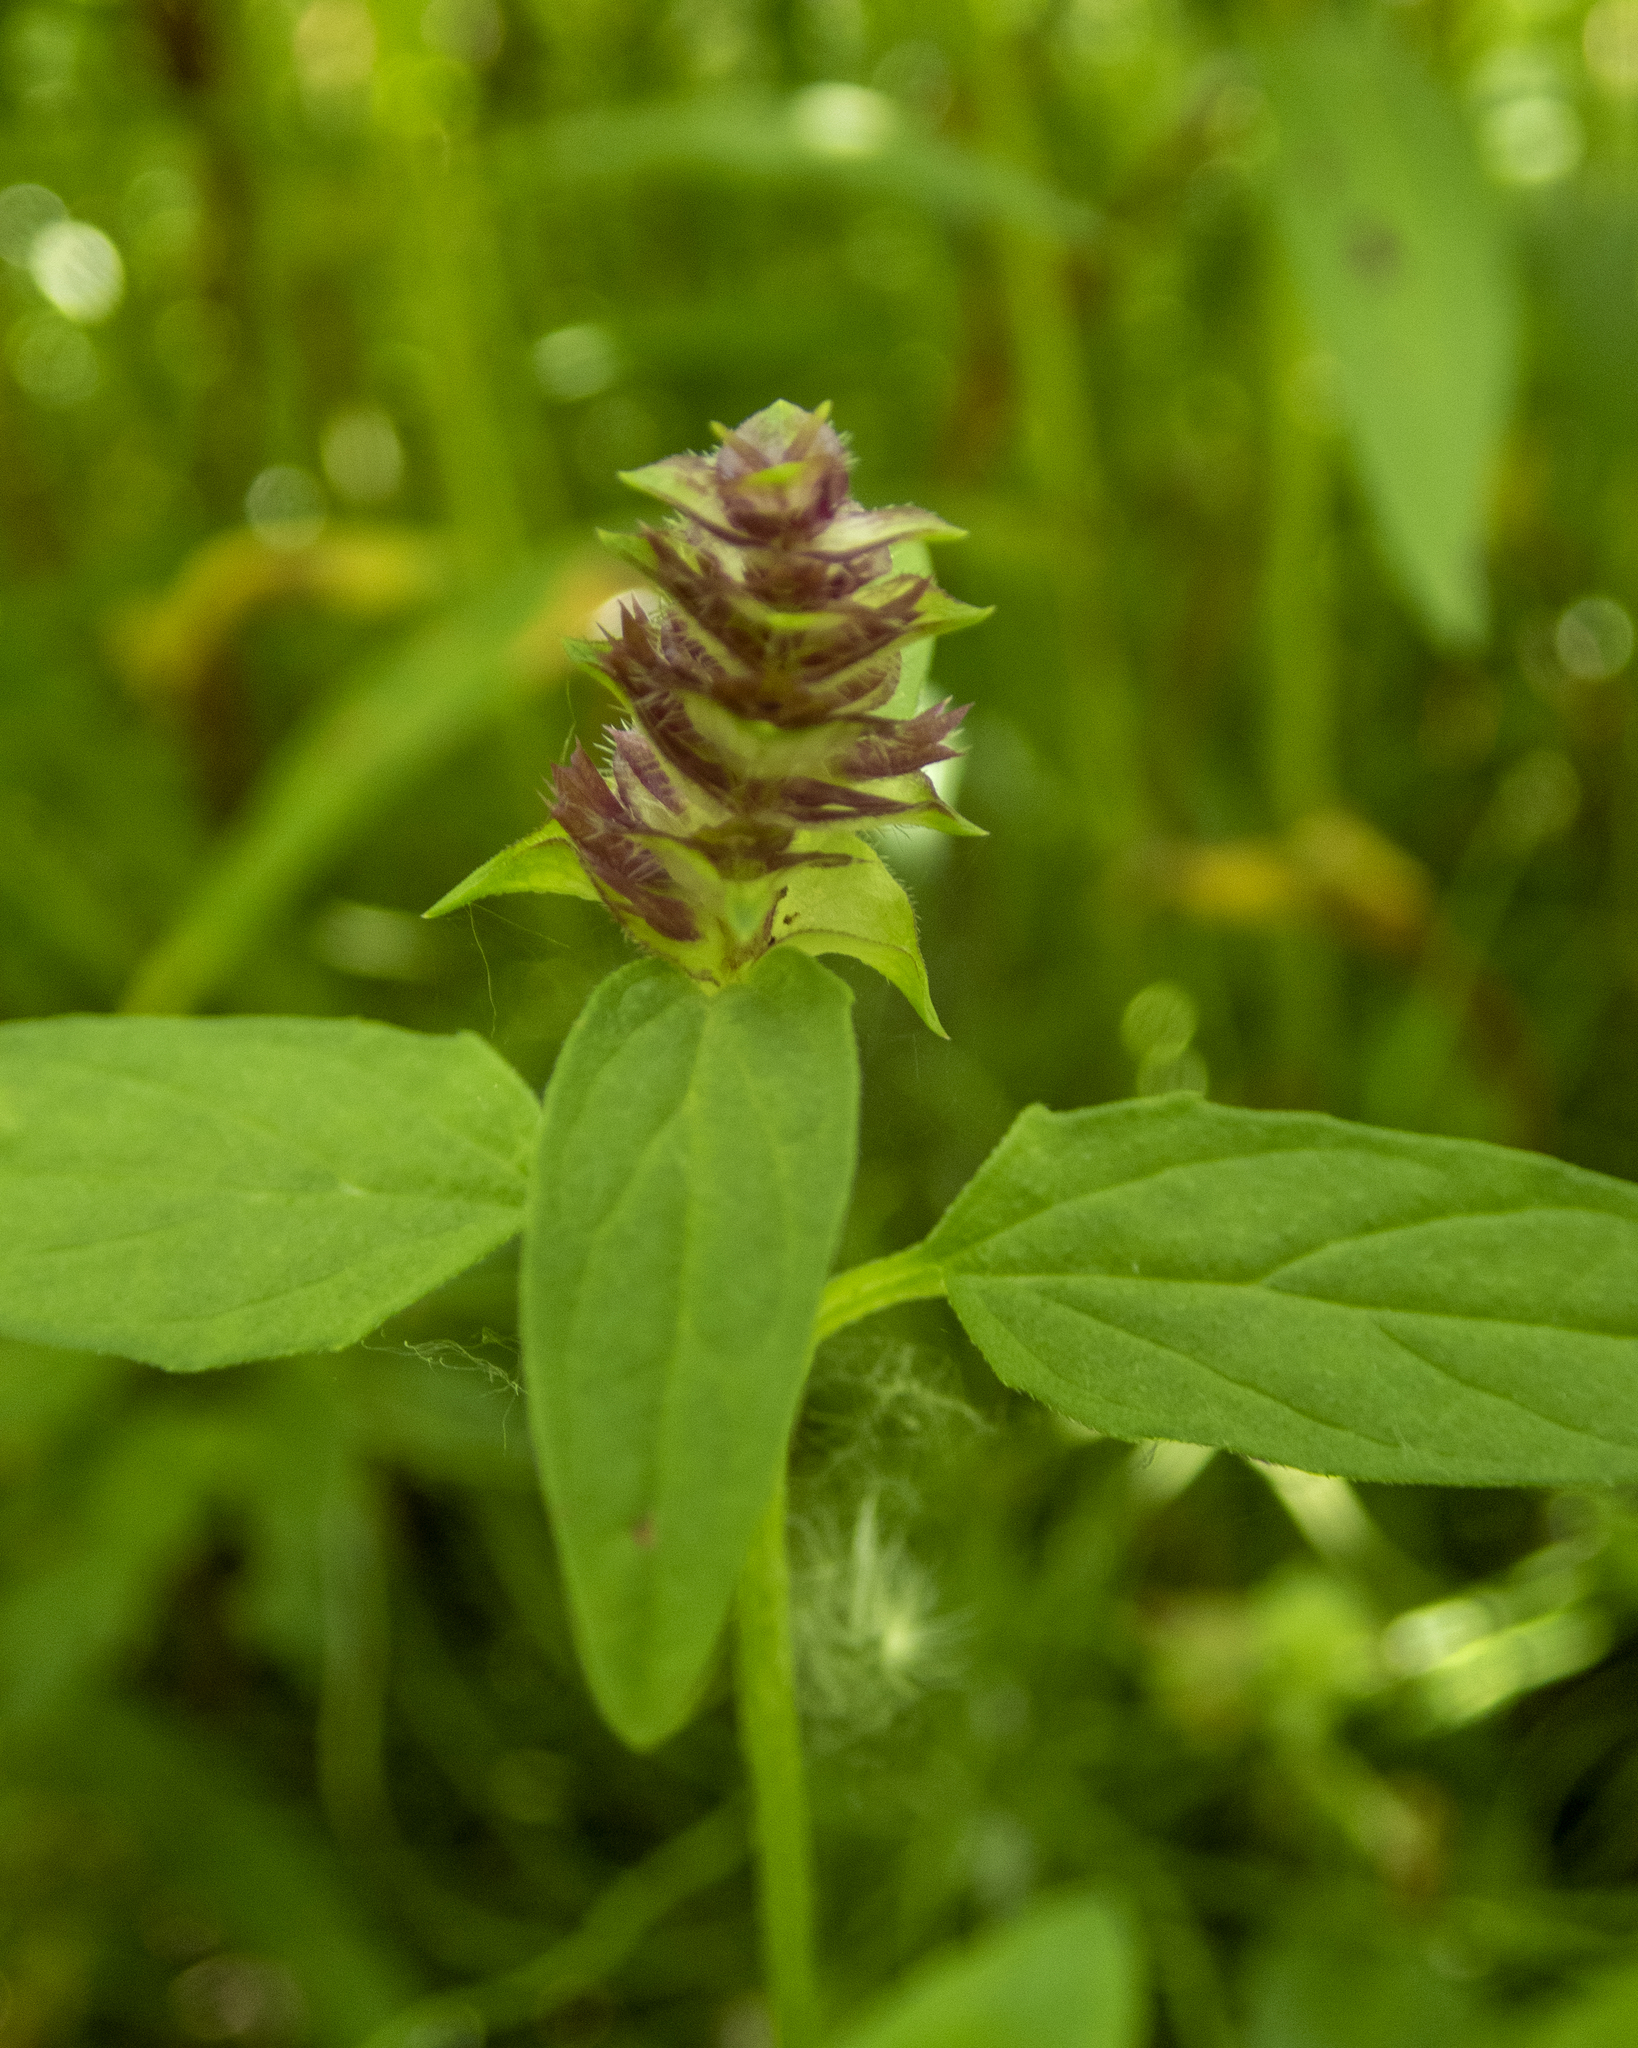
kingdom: Plantae
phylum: Tracheophyta
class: Magnoliopsida
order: Lamiales
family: Lamiaceae
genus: Prunella
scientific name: Prunella vulgaris
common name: Heal-all
